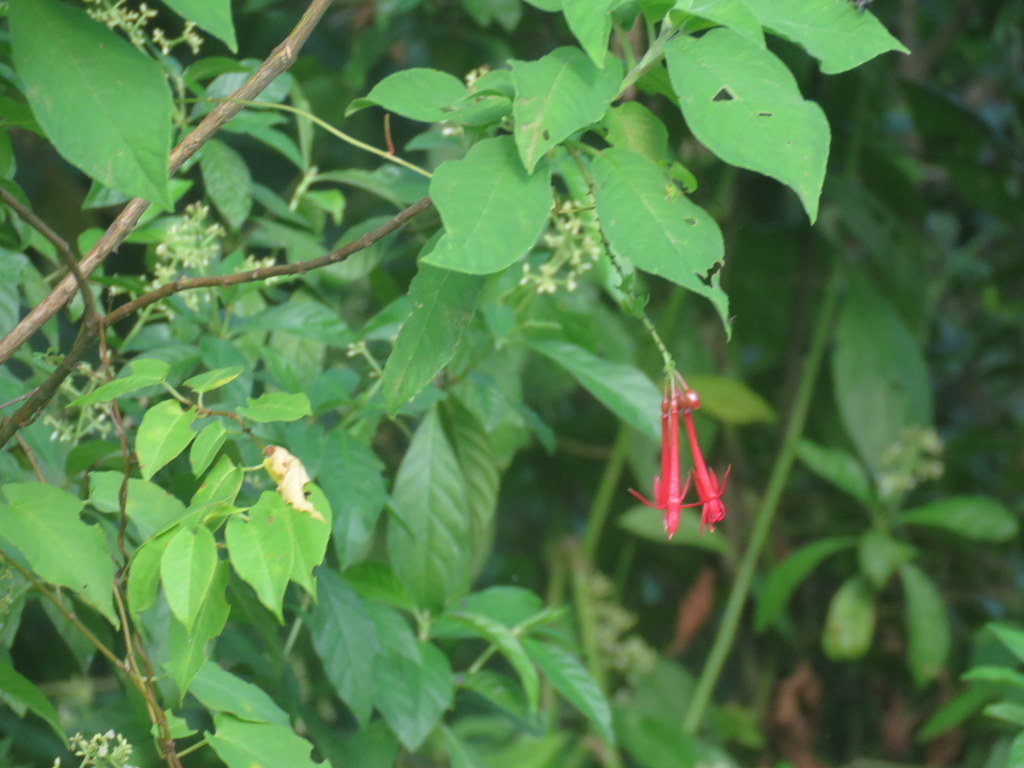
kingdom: Plantae
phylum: Tracheophyta
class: Magnoliopsida
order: Myrtales
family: Onagraceae
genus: Fuchsia
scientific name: Fuchsia boliviana
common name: Bolivian fuchsia
